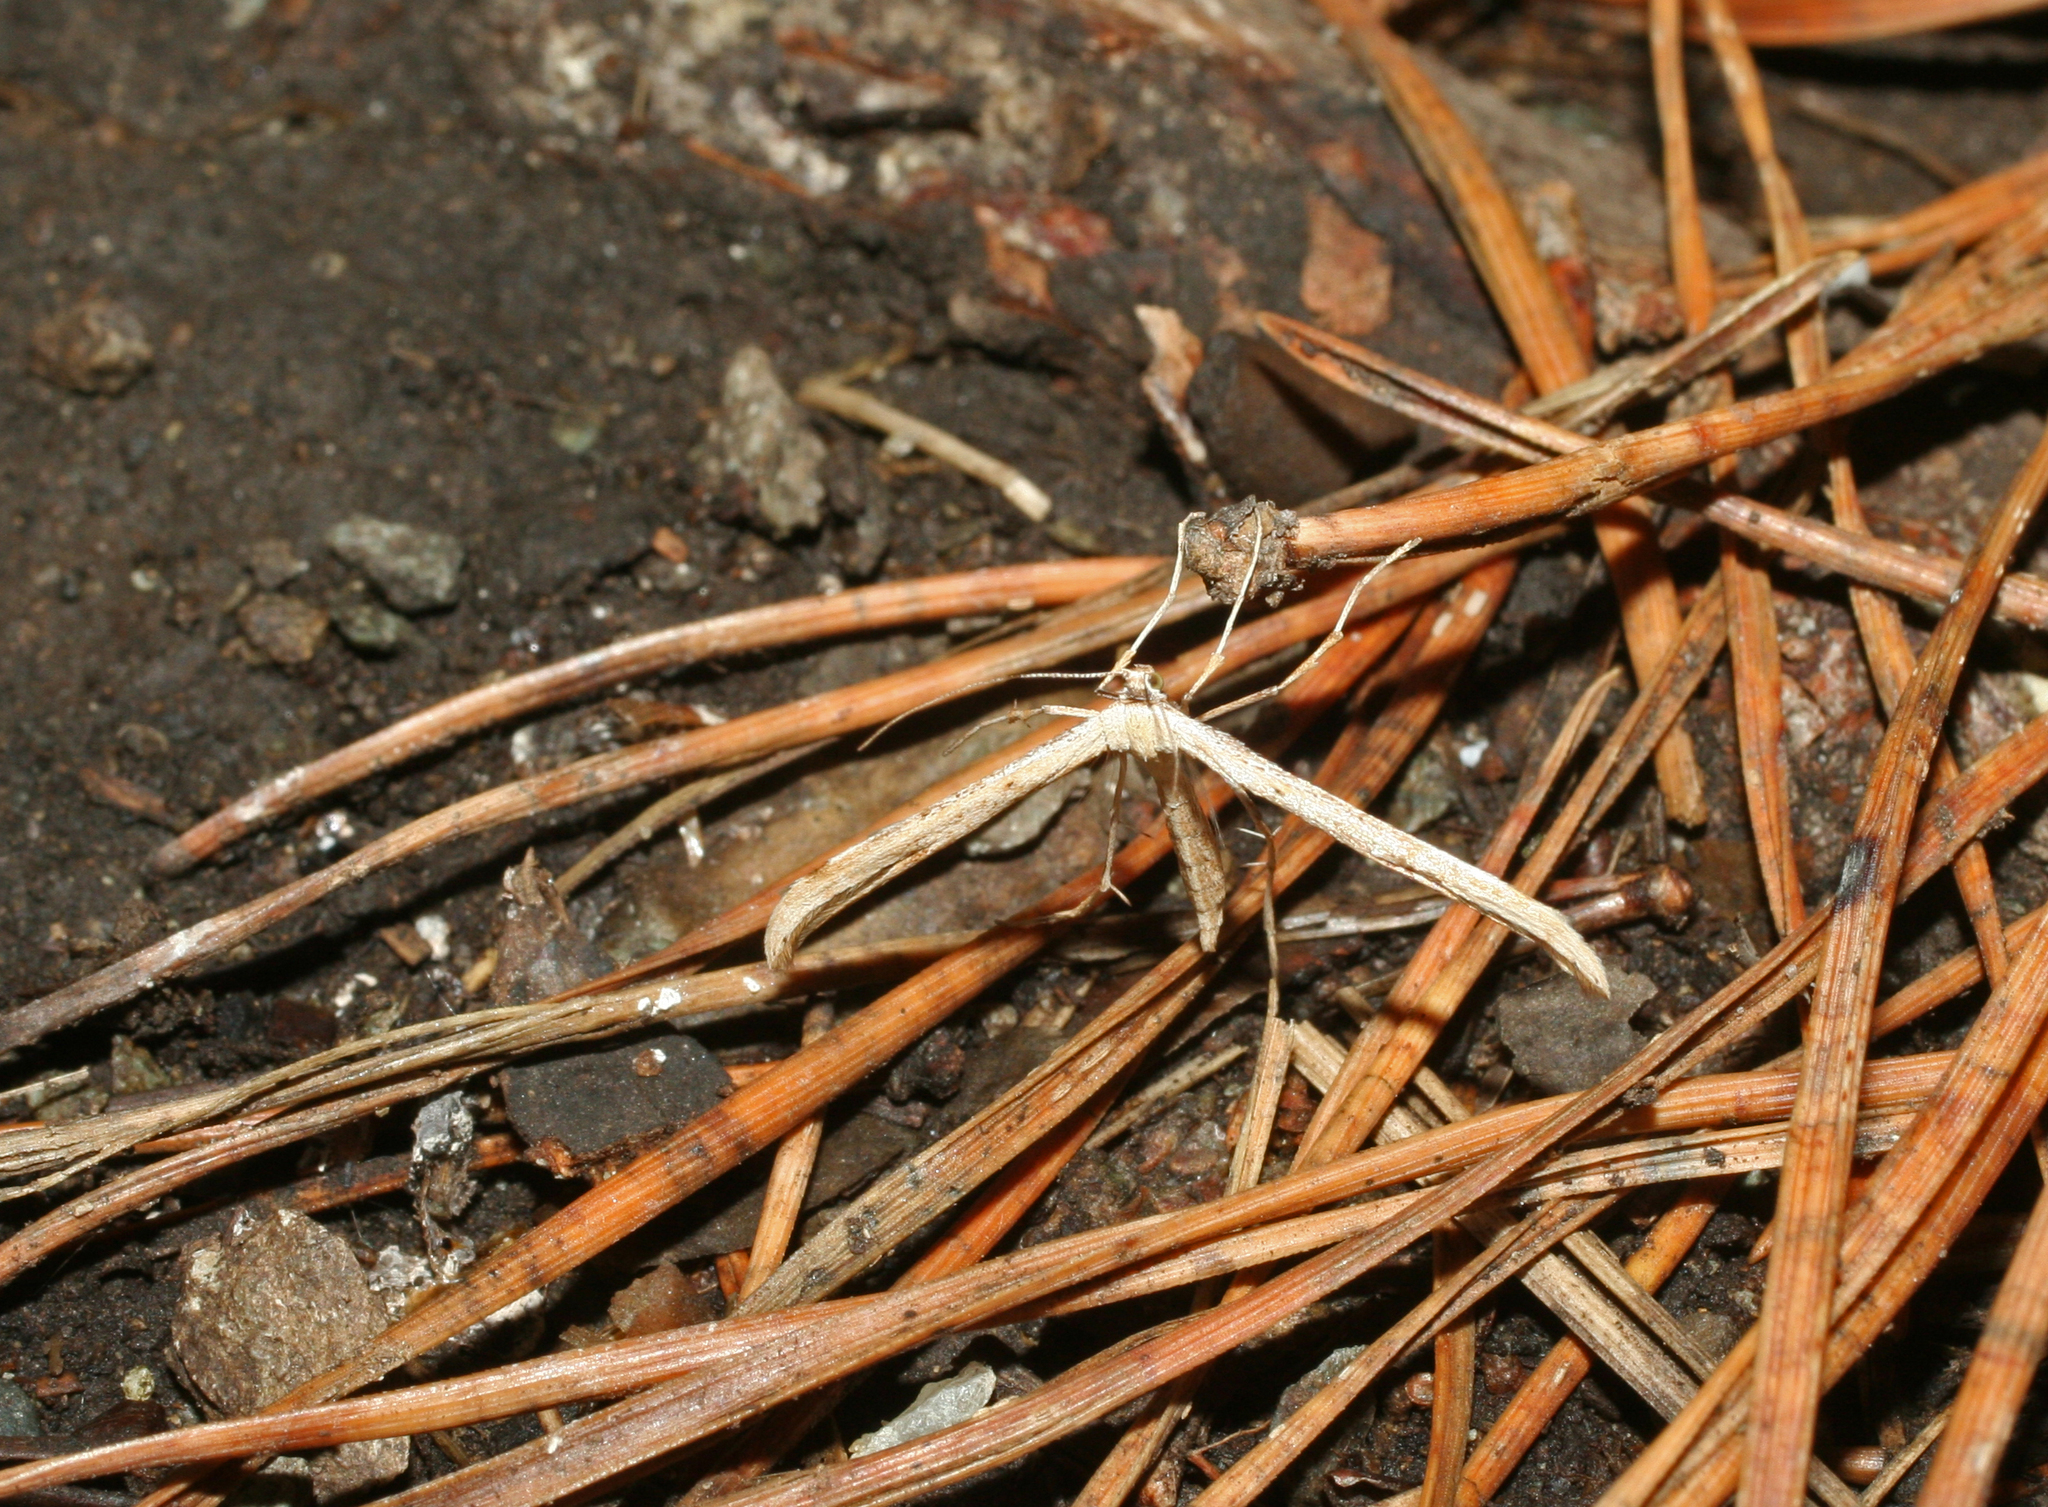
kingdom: Animalia
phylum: Arthropoda
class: Insecta
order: Lepidoptera
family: Pterophoridae
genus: Emmelina
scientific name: Emmelina monodactyla
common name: Common plume
